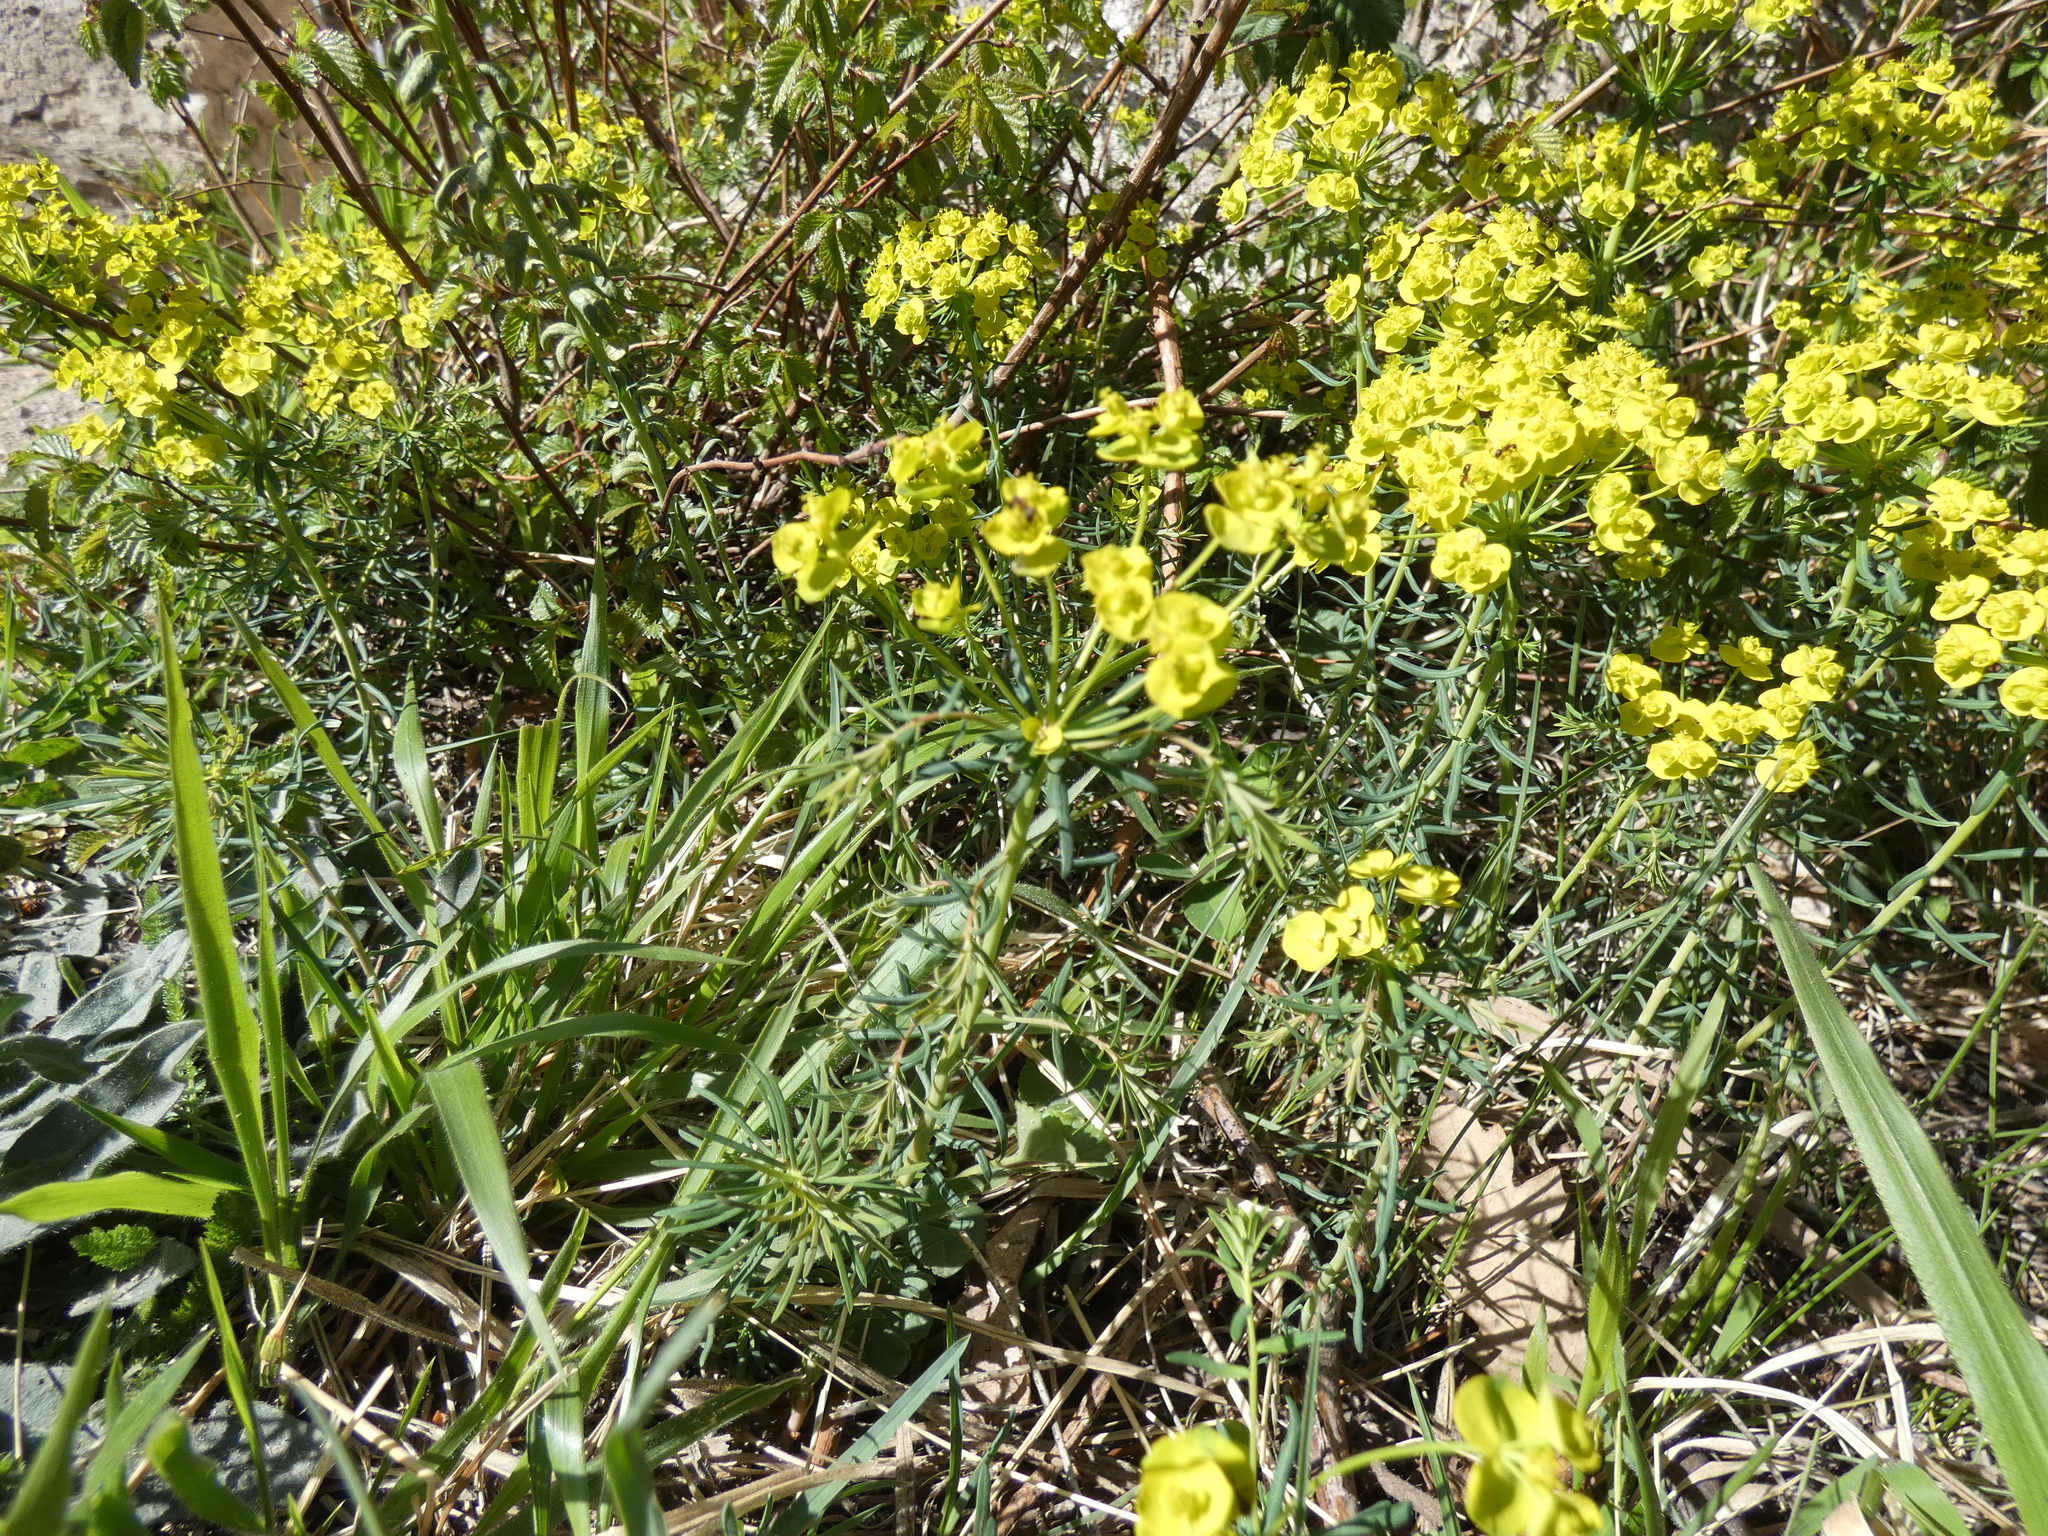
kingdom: Plantae
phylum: Tracheophyta
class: Magnoliopsida
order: Malpighiales
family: Euphorbiaceae
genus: Euphorbia
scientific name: Euphorbia cyparissias
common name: Cypress spurge
